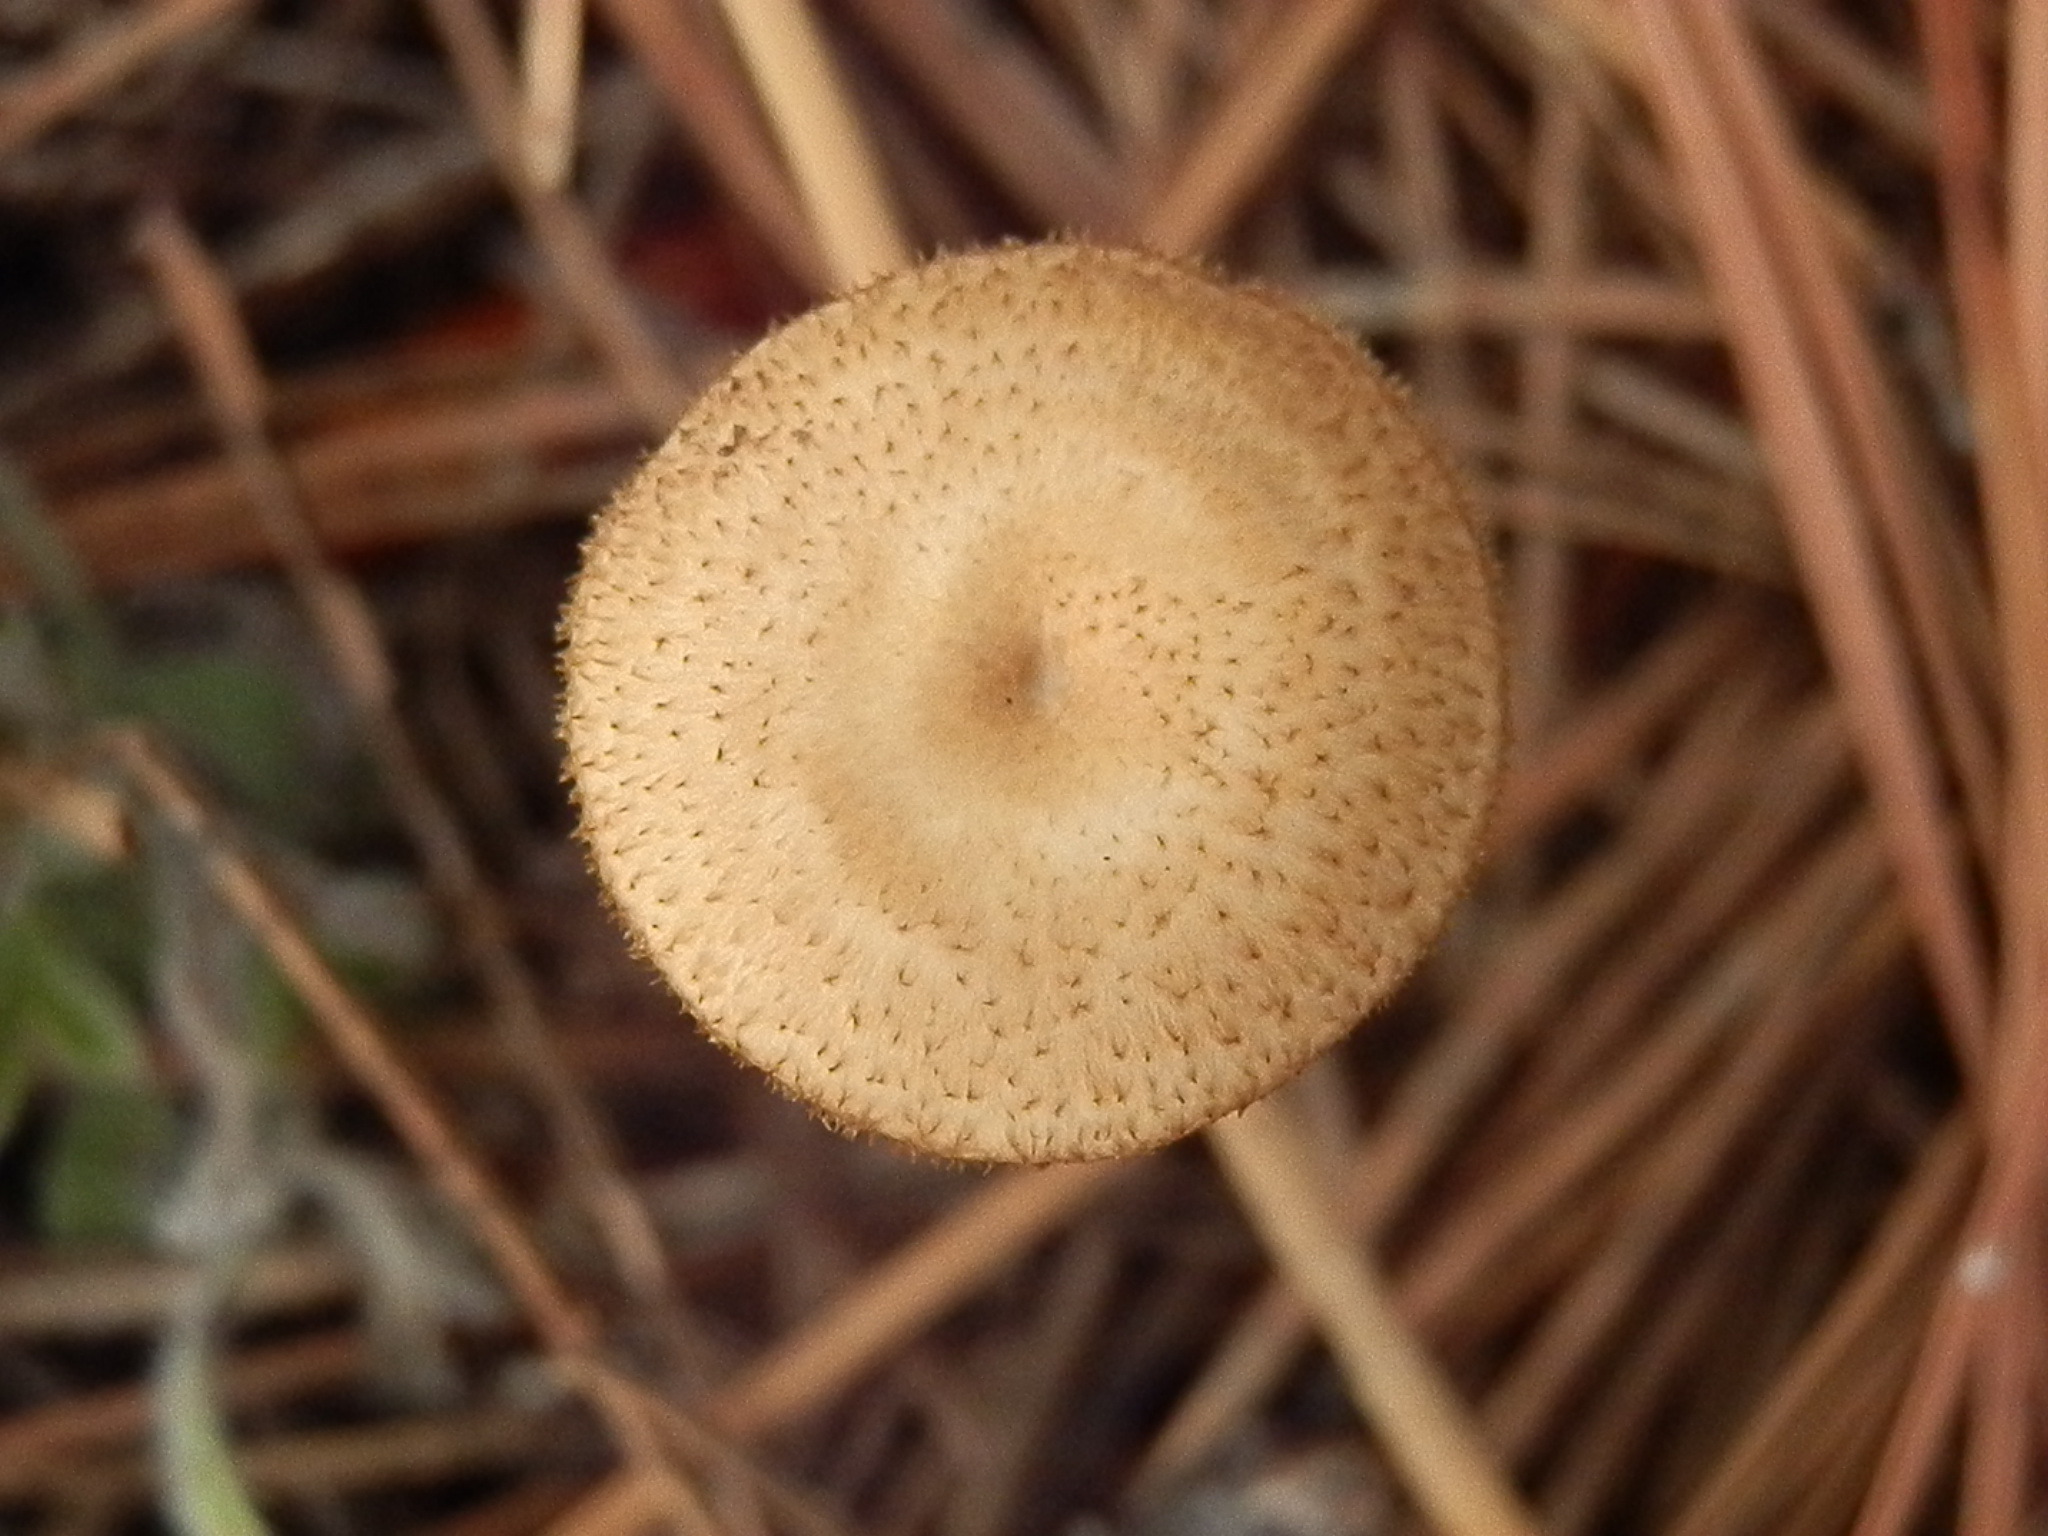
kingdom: Fungi
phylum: Basidiomycota
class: Agaricomycetes
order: Polyporales
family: Polyporaceae
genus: Lentinus
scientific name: Lentinus arcularius
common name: Spring polypore
